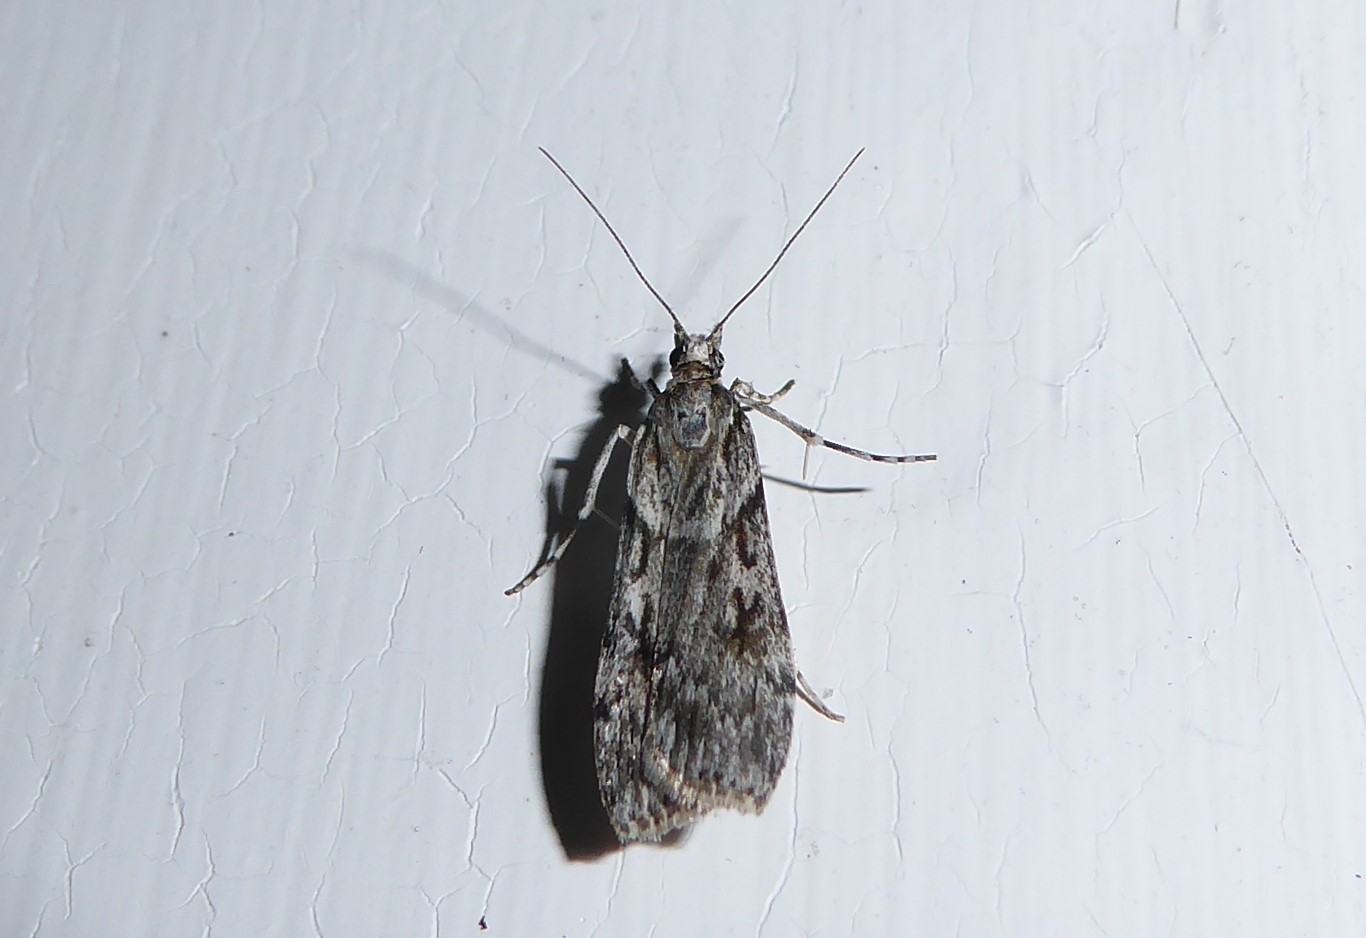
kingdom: Animalia
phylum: Arthropoda
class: Insecta
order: Lepidoptera
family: Crambidae
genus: Scoparia
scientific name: Scoparia halopis
